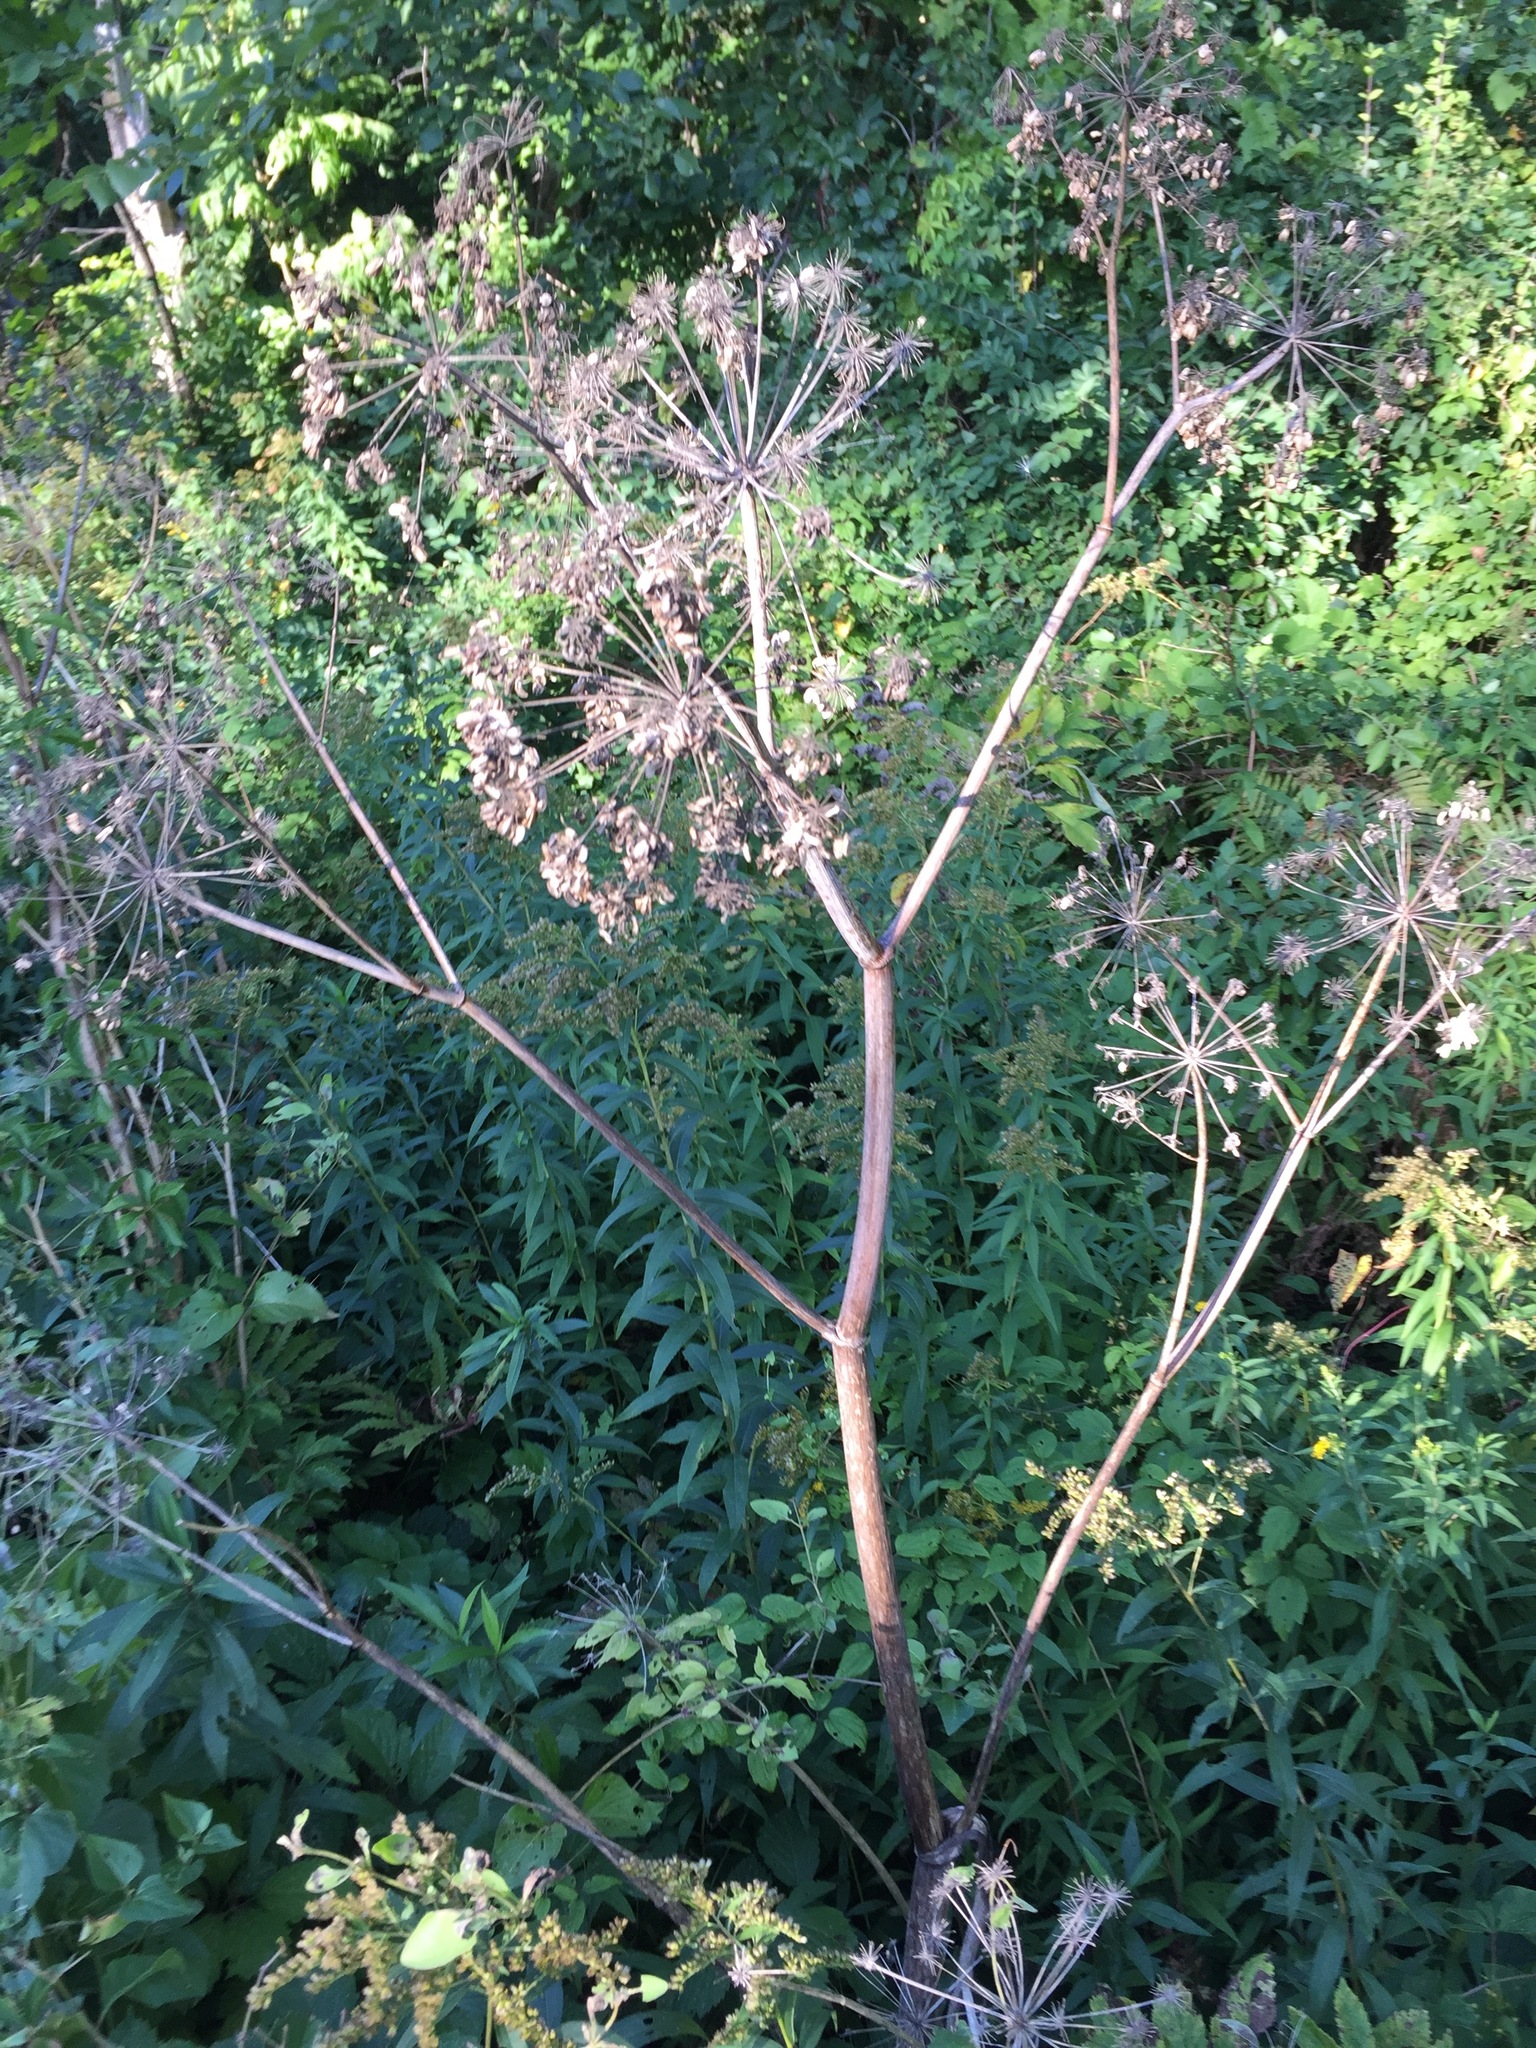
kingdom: Plantae
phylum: Tracheophyta
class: Magnoliopsida
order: Apiales
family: Apiaceae
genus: Angelica
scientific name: Angelica atropurpurea
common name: Great angelica
